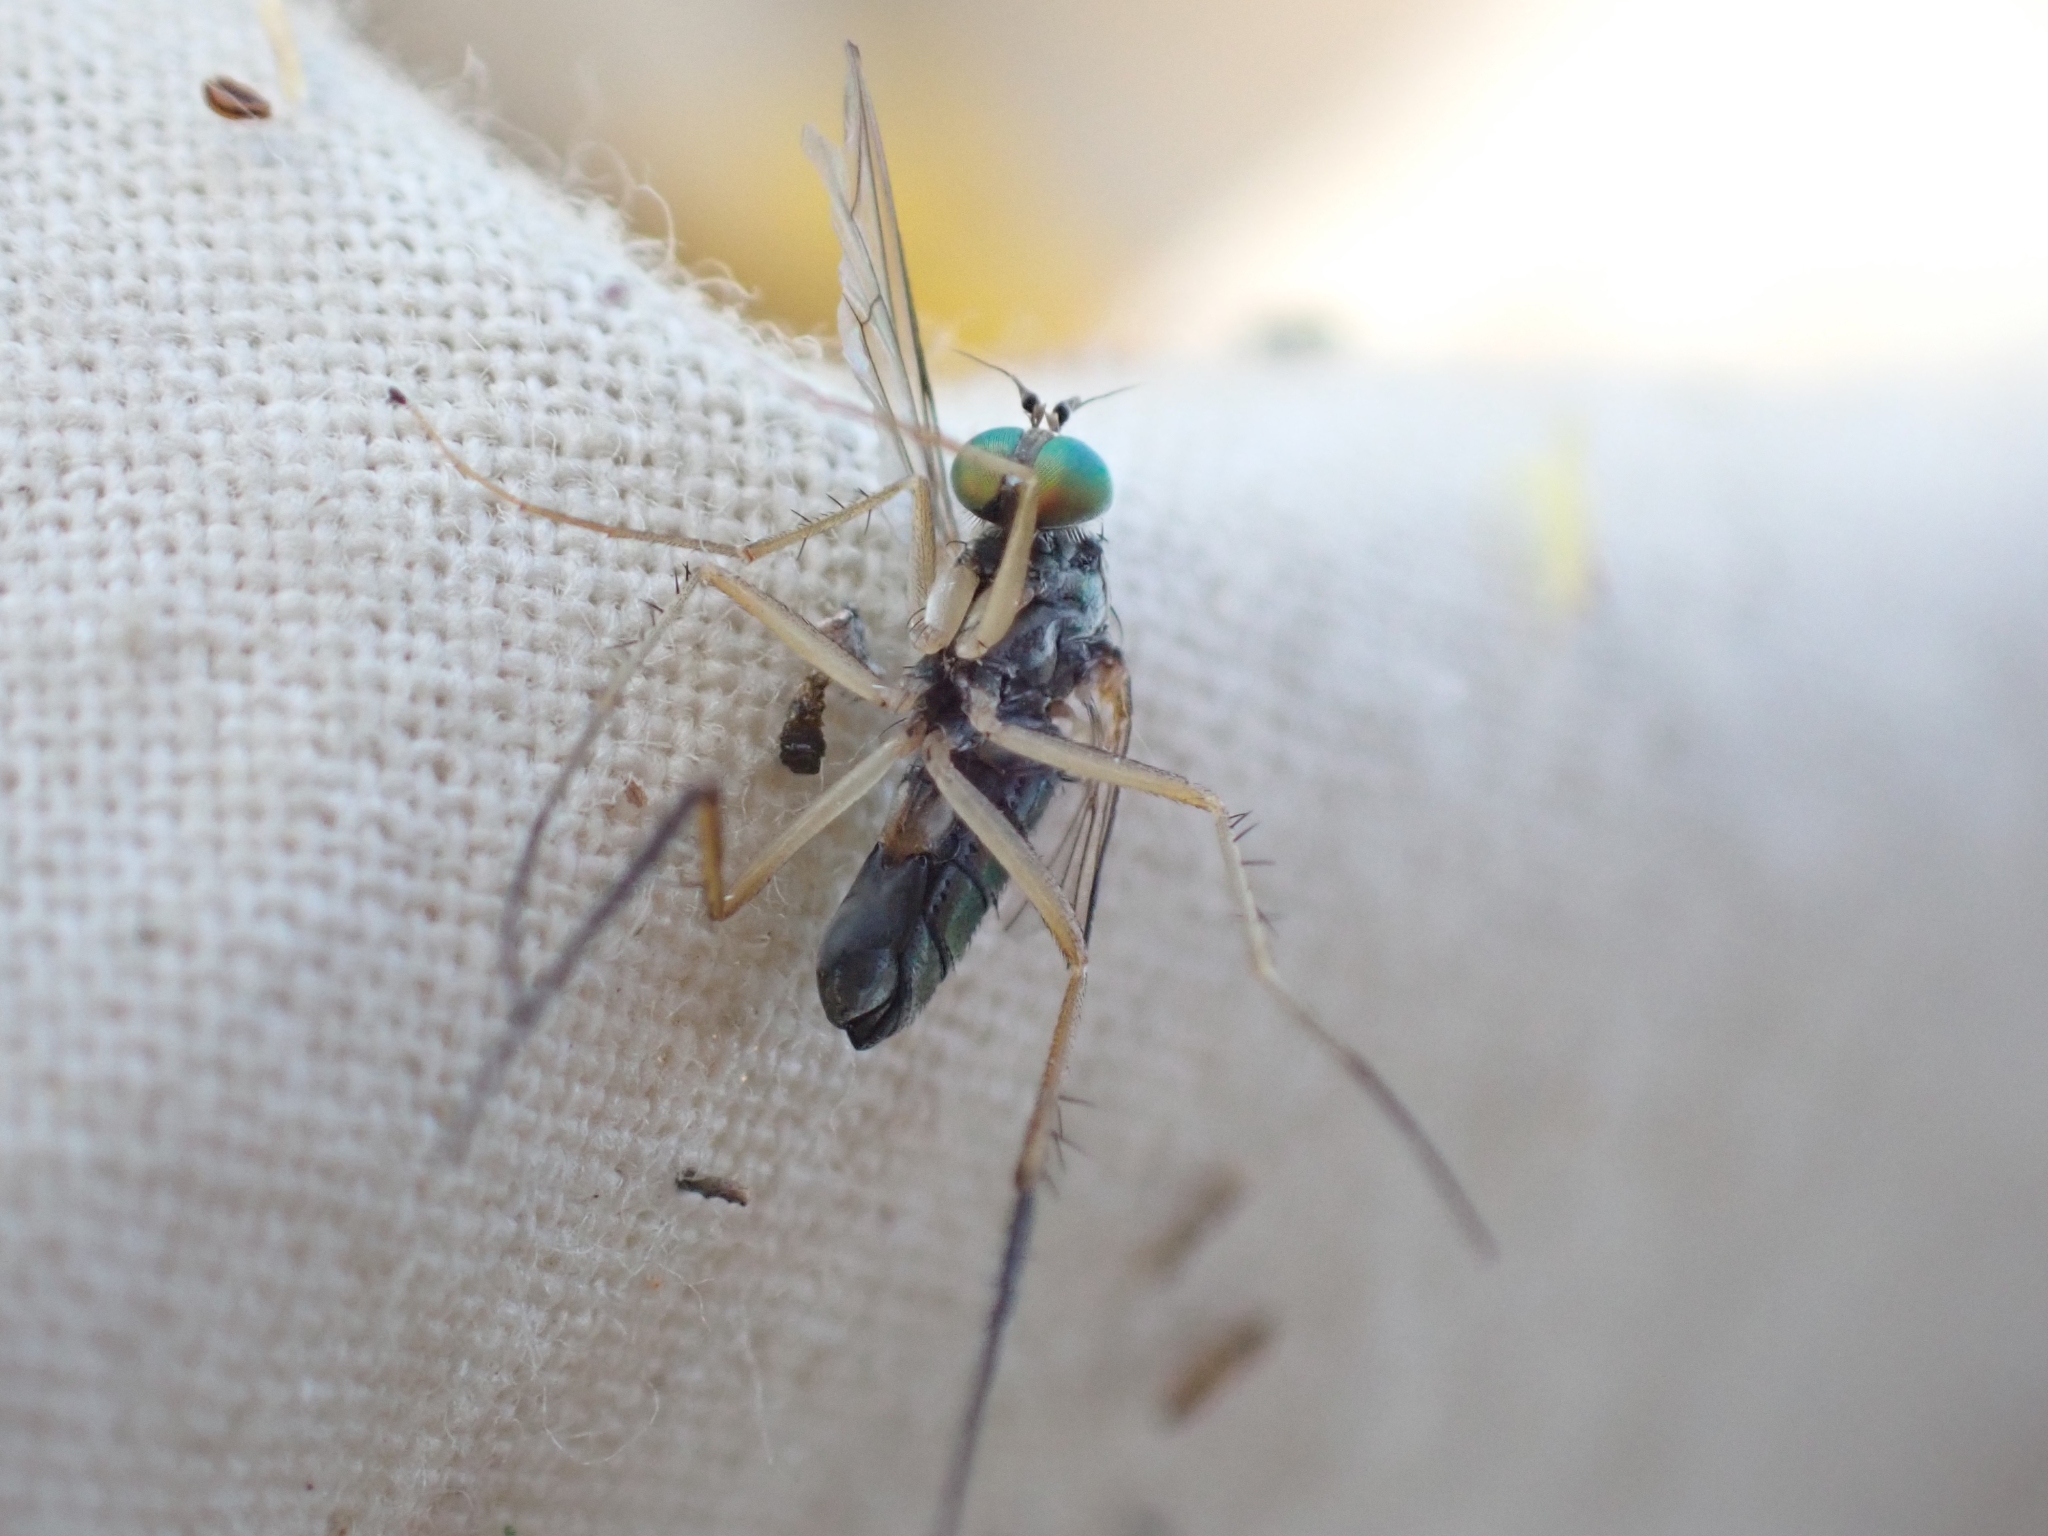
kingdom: Animalia
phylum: Arthropoda
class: Insecta
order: Diptera
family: Dolichopodidae
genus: Dolichopus
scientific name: Dolichopus nigricornis
